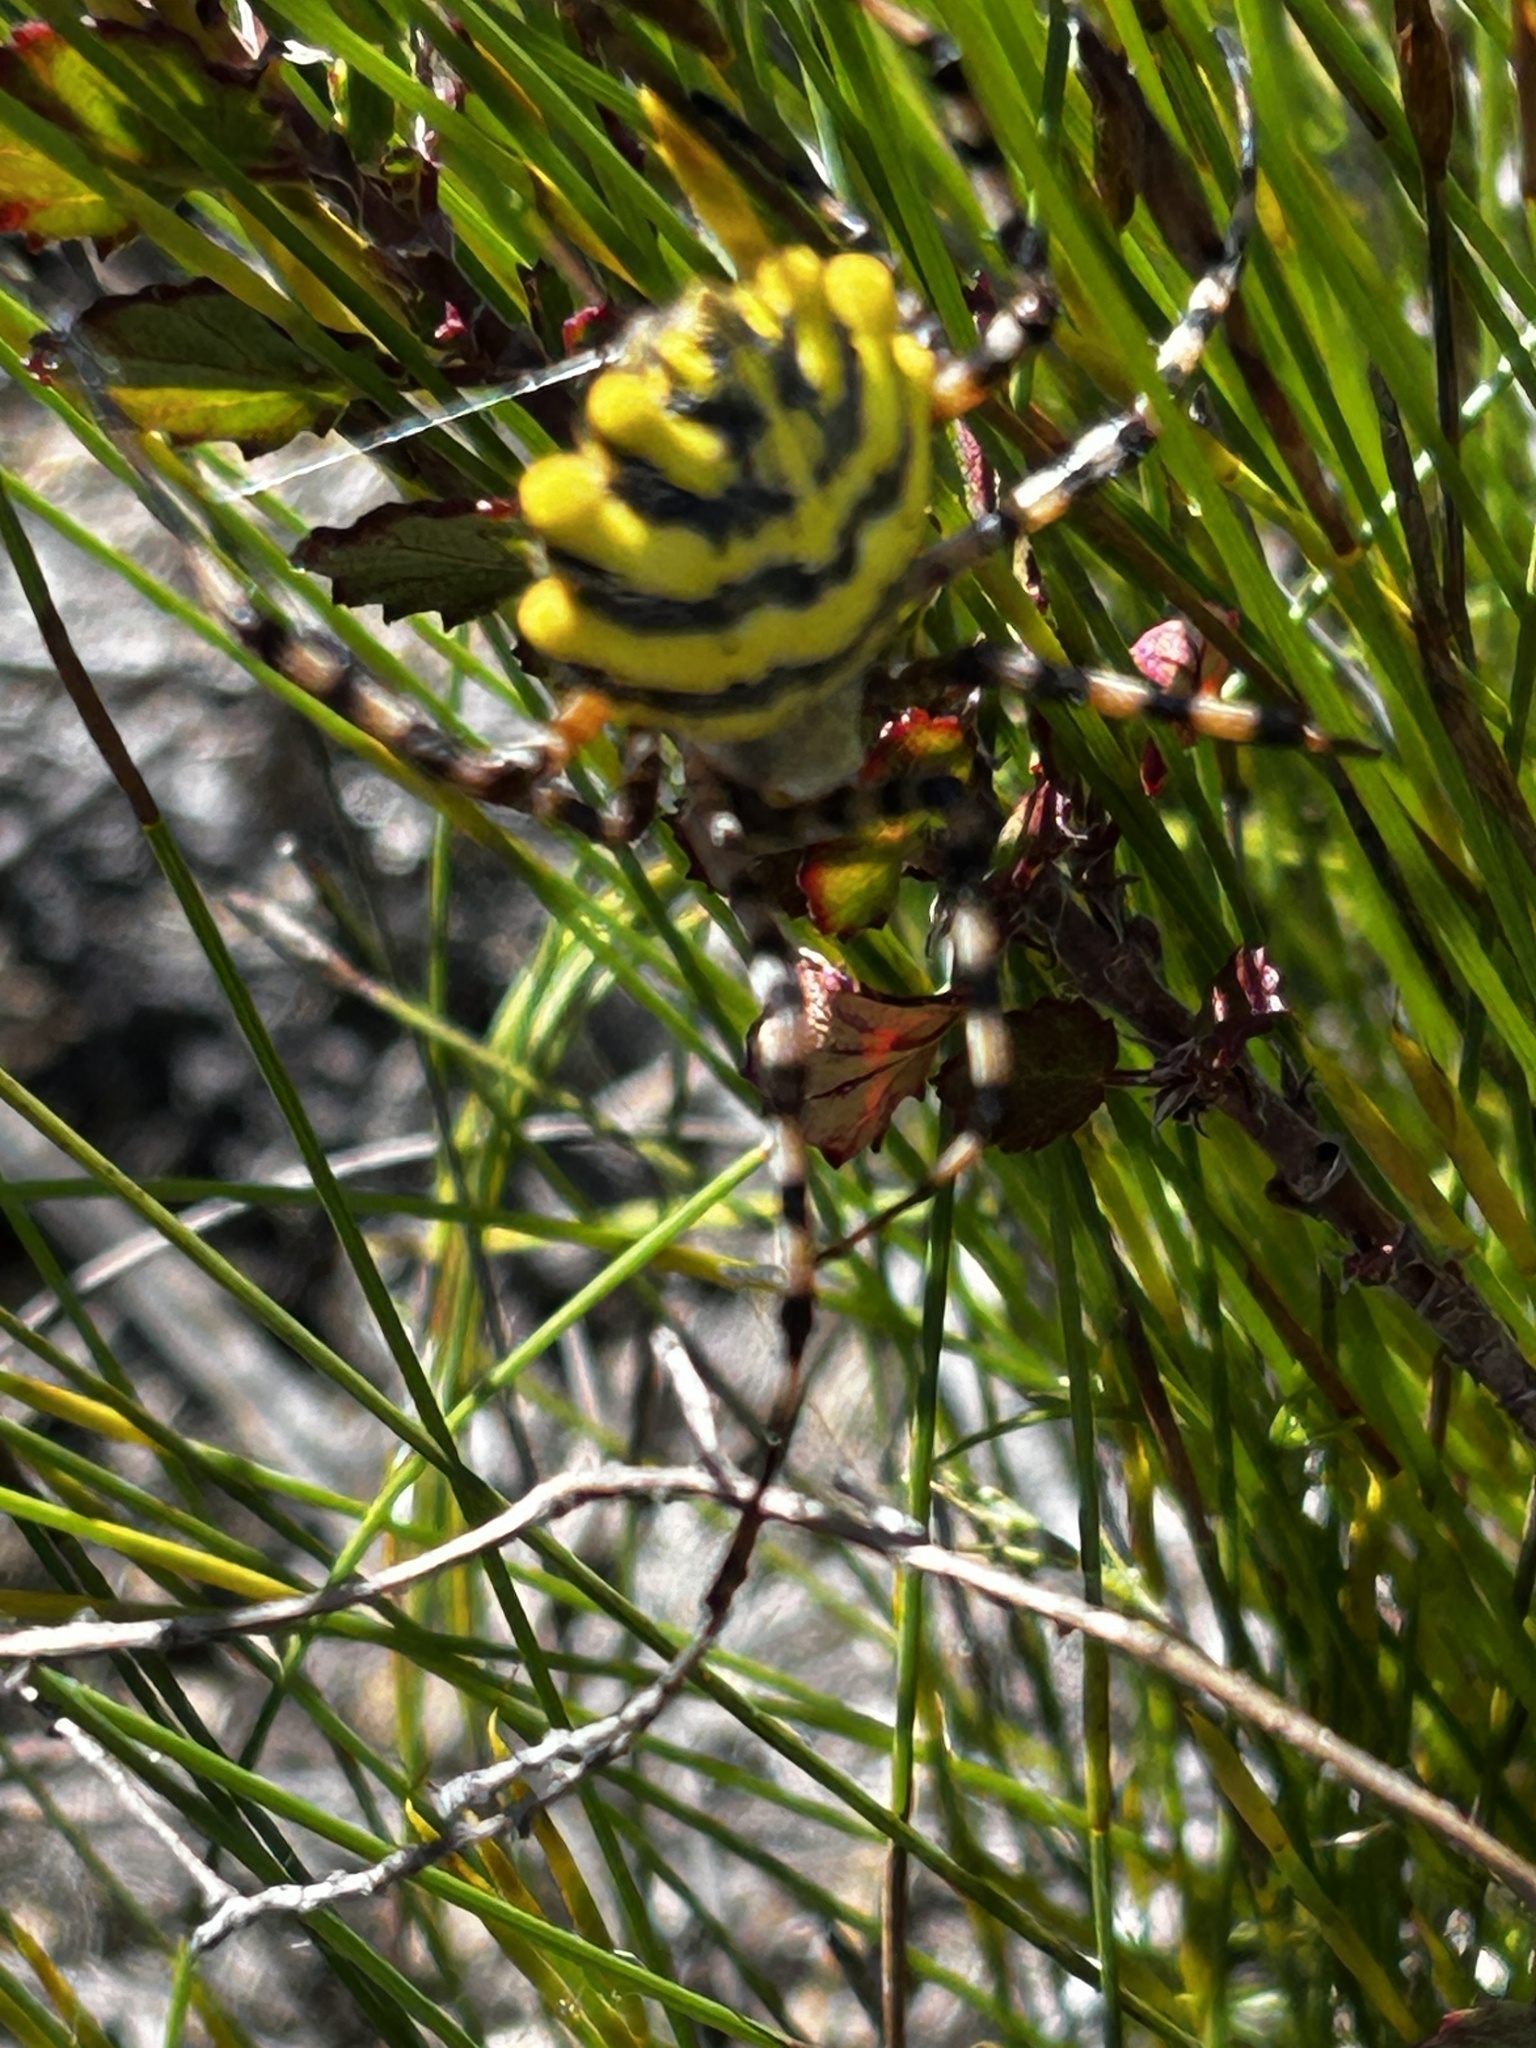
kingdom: Animalia
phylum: Arthropoda
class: Arachnida
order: Araneae
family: Araneidae
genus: Argiope
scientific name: Argiope australis
